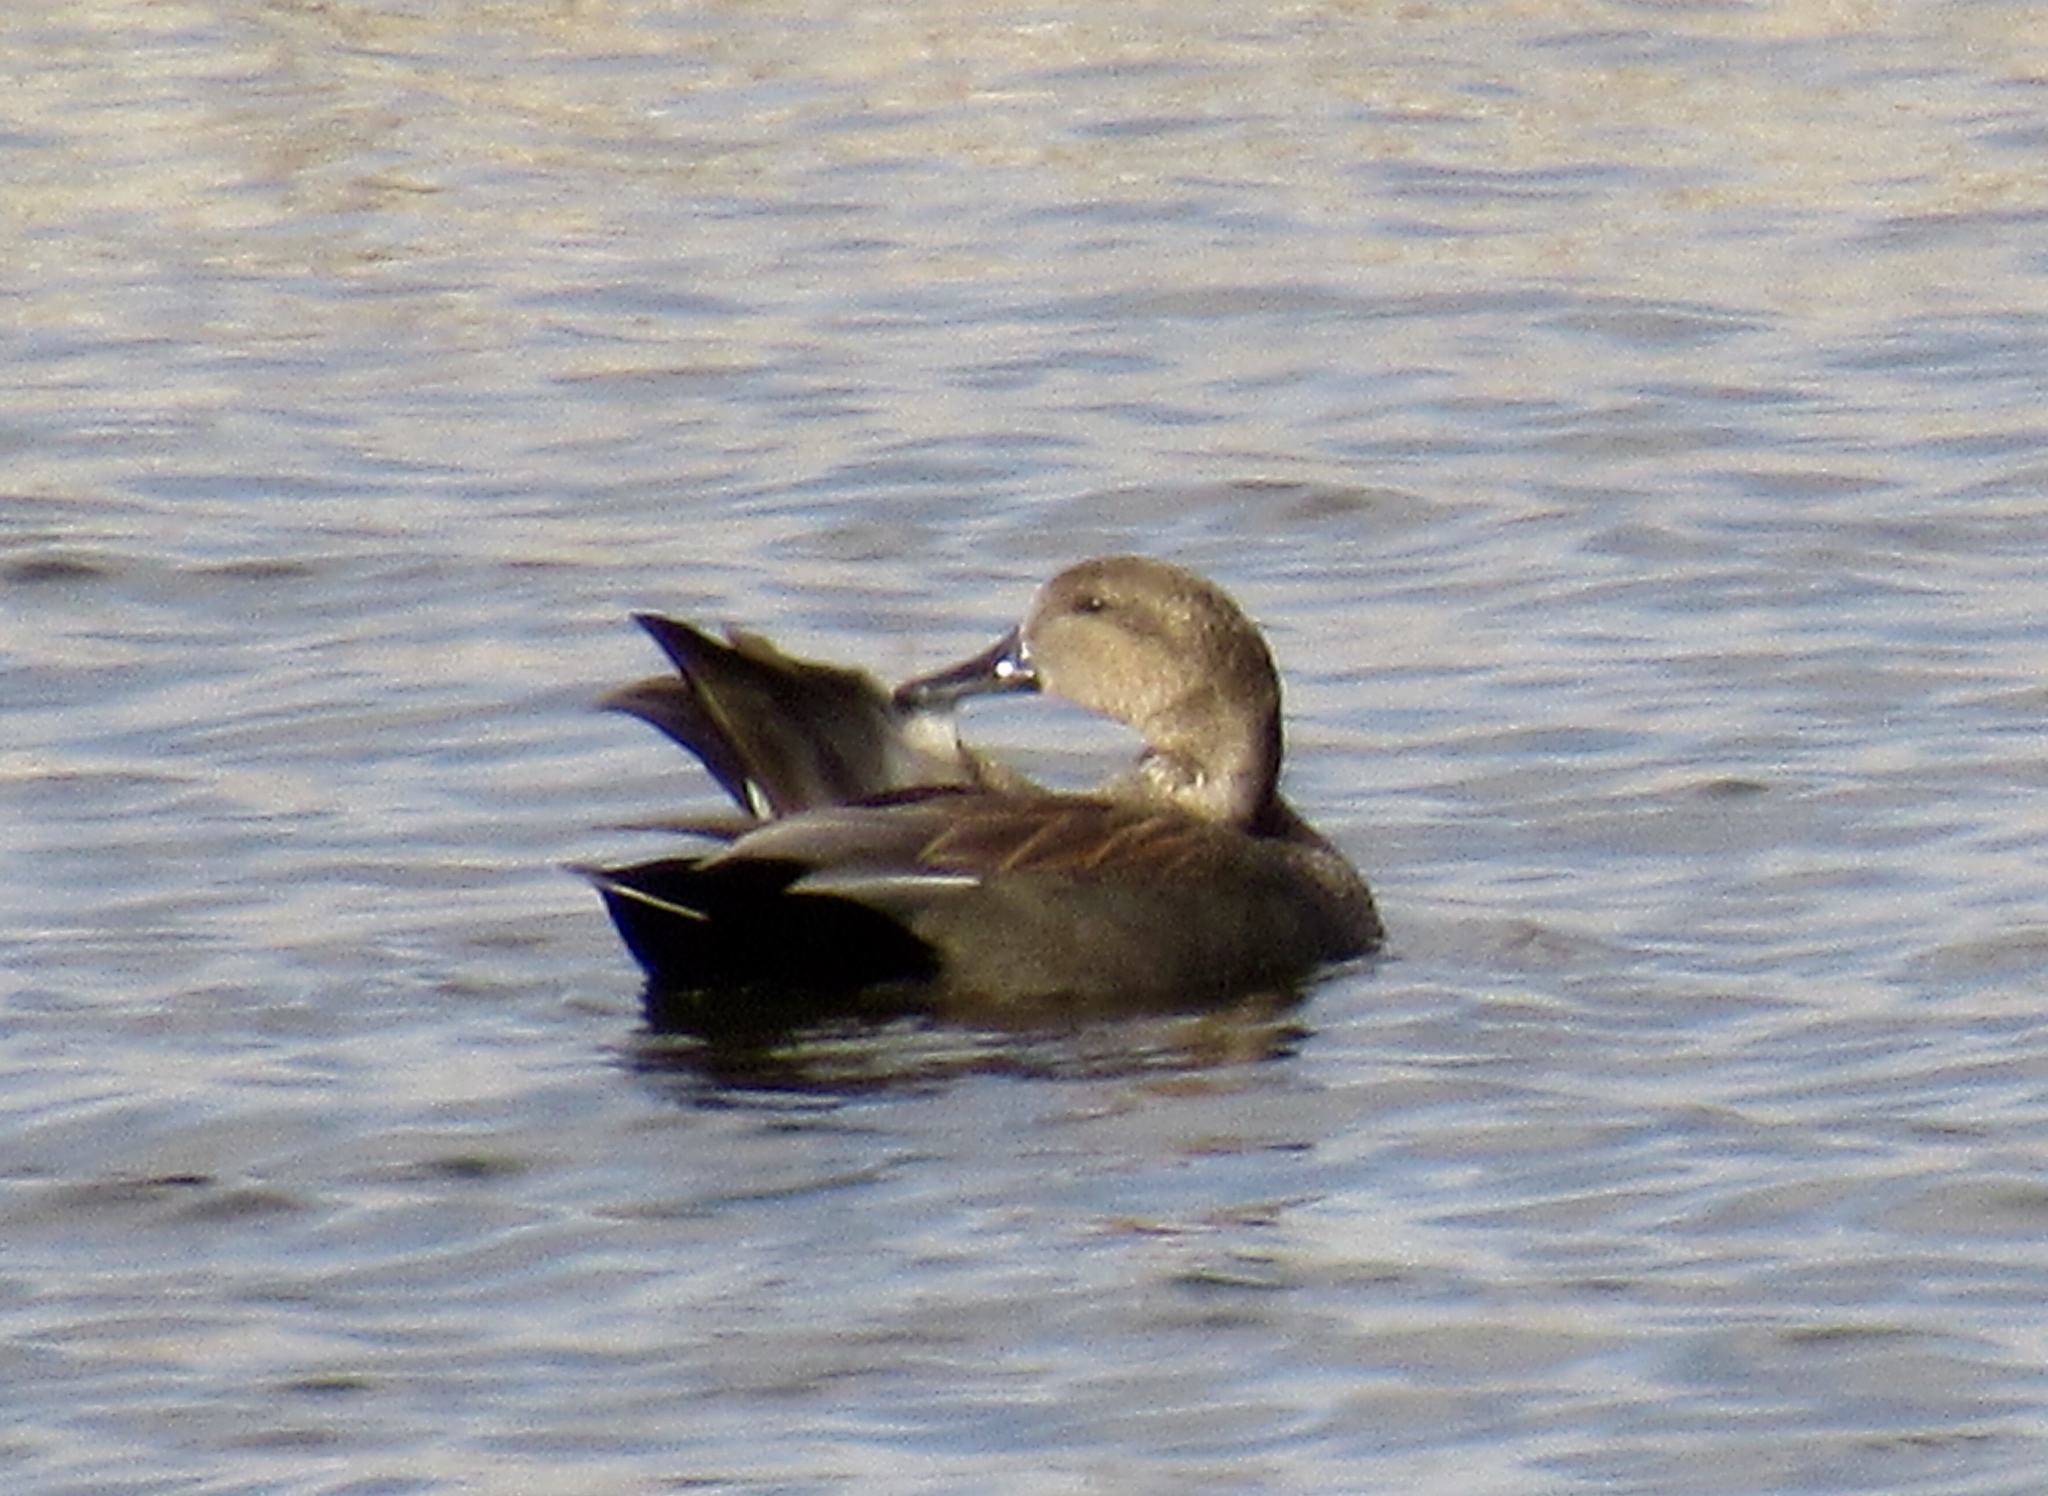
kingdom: Animalia
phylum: Chordata
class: Aves
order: Anseriformes
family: Anatidae
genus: Mareca
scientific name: Mareca strepera
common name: Gadwall
